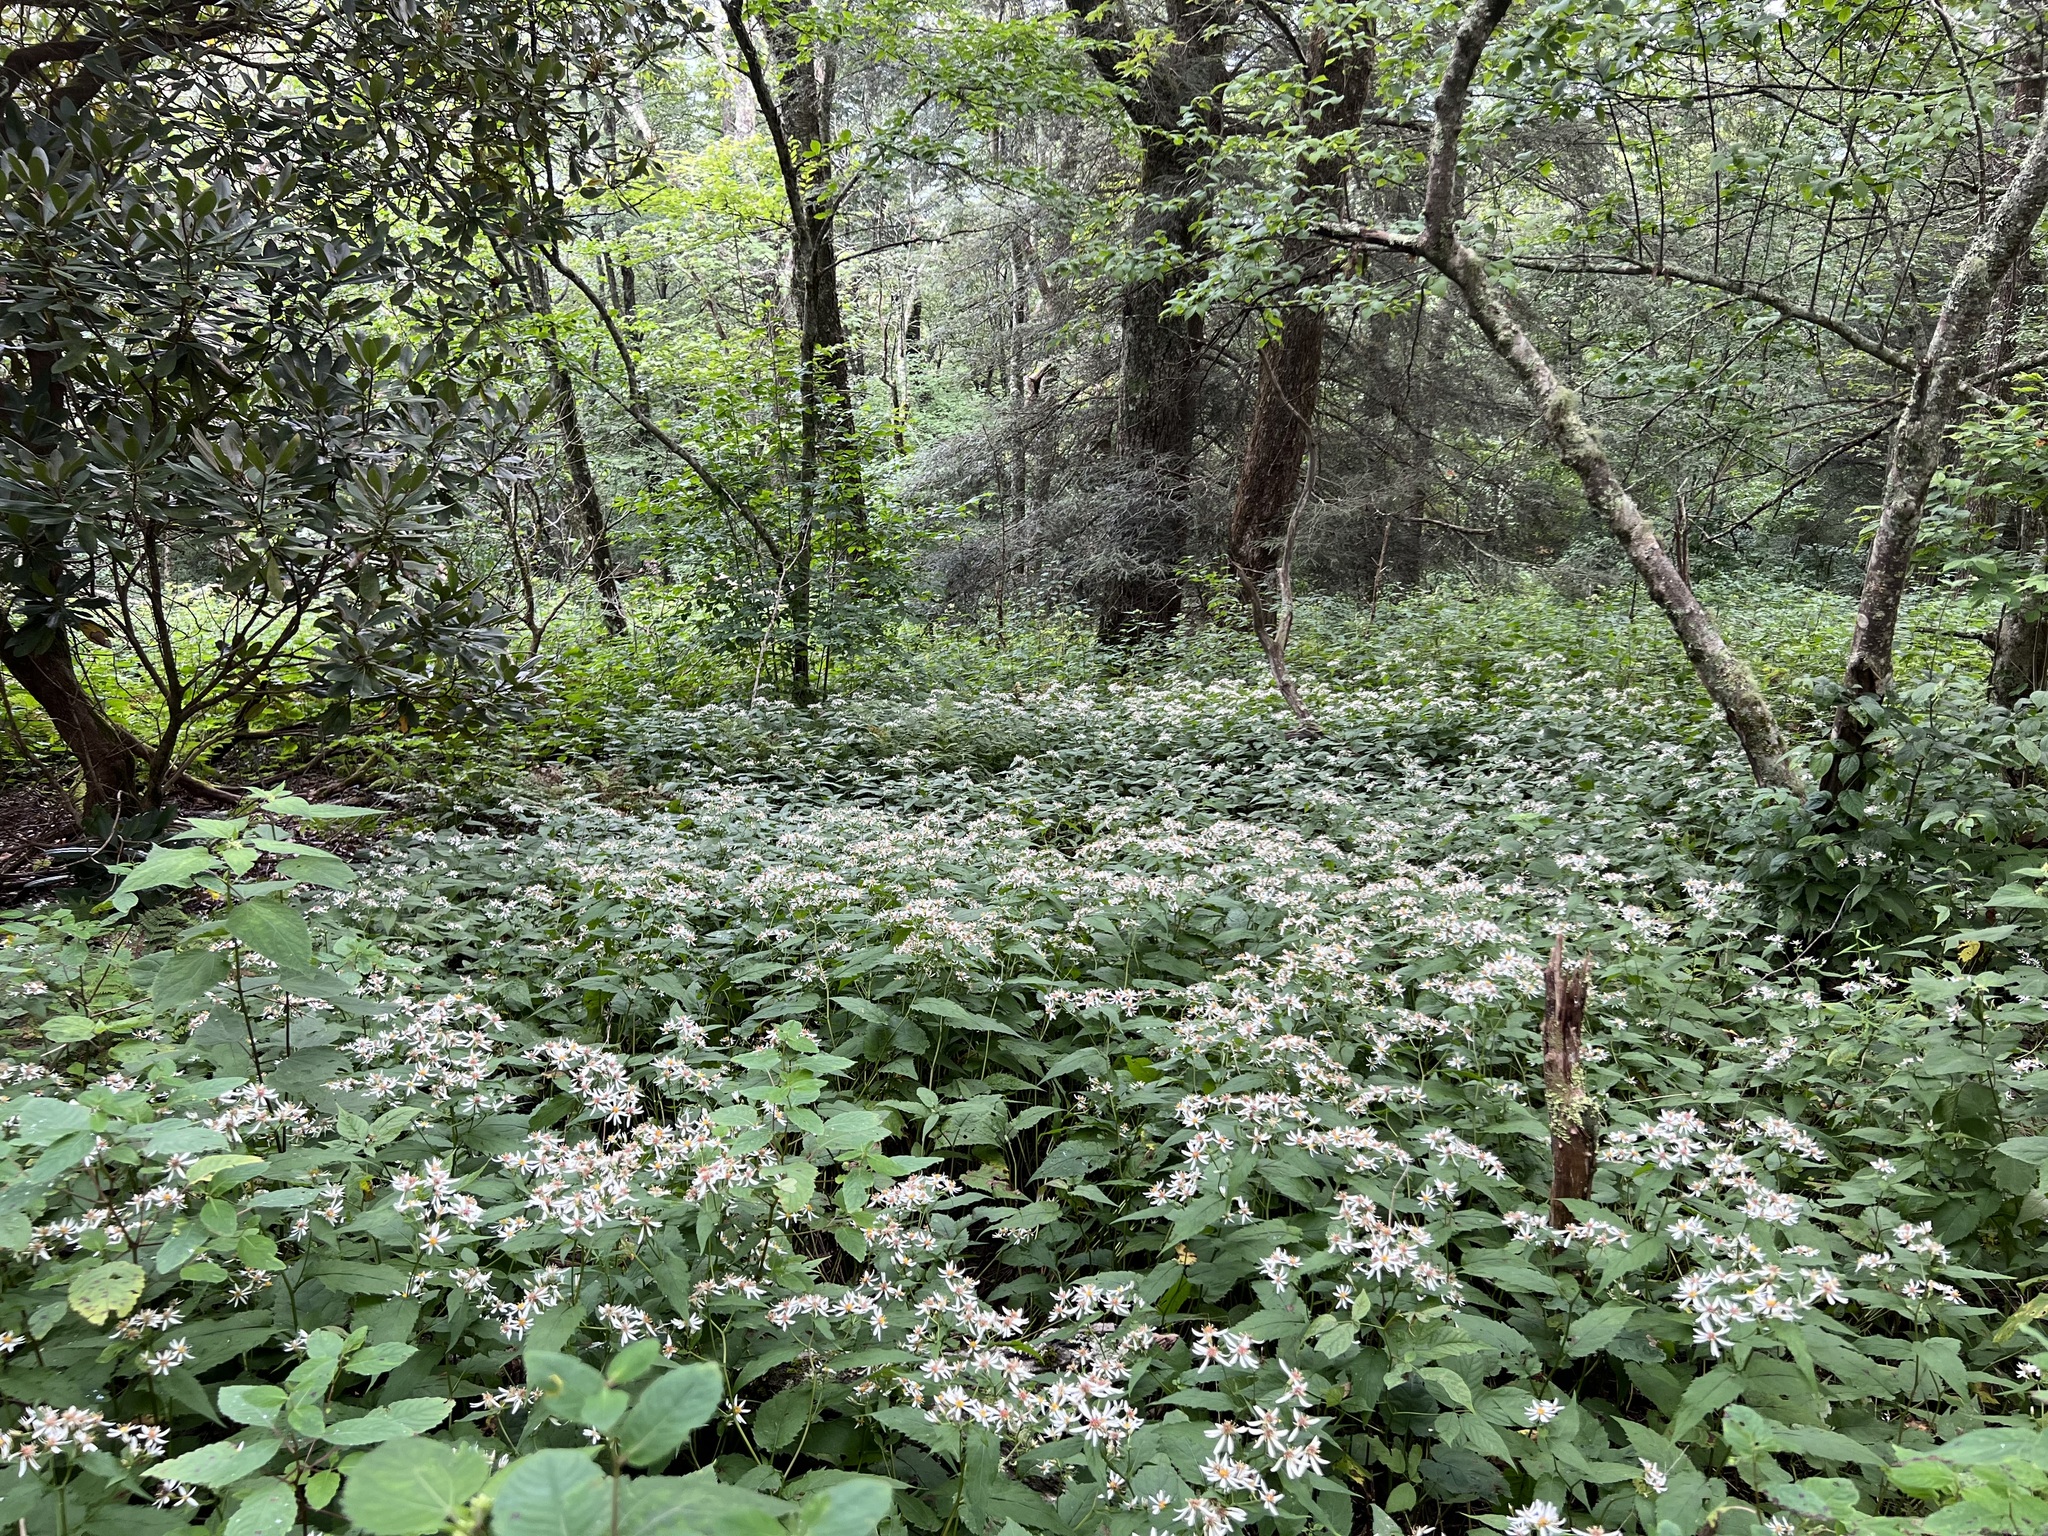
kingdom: Plantae
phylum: Tracheophyta
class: Magnoliopsida
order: Asterales
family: Asteraceae
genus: Eurybia
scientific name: Eurybia divaricata
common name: White wood aster
